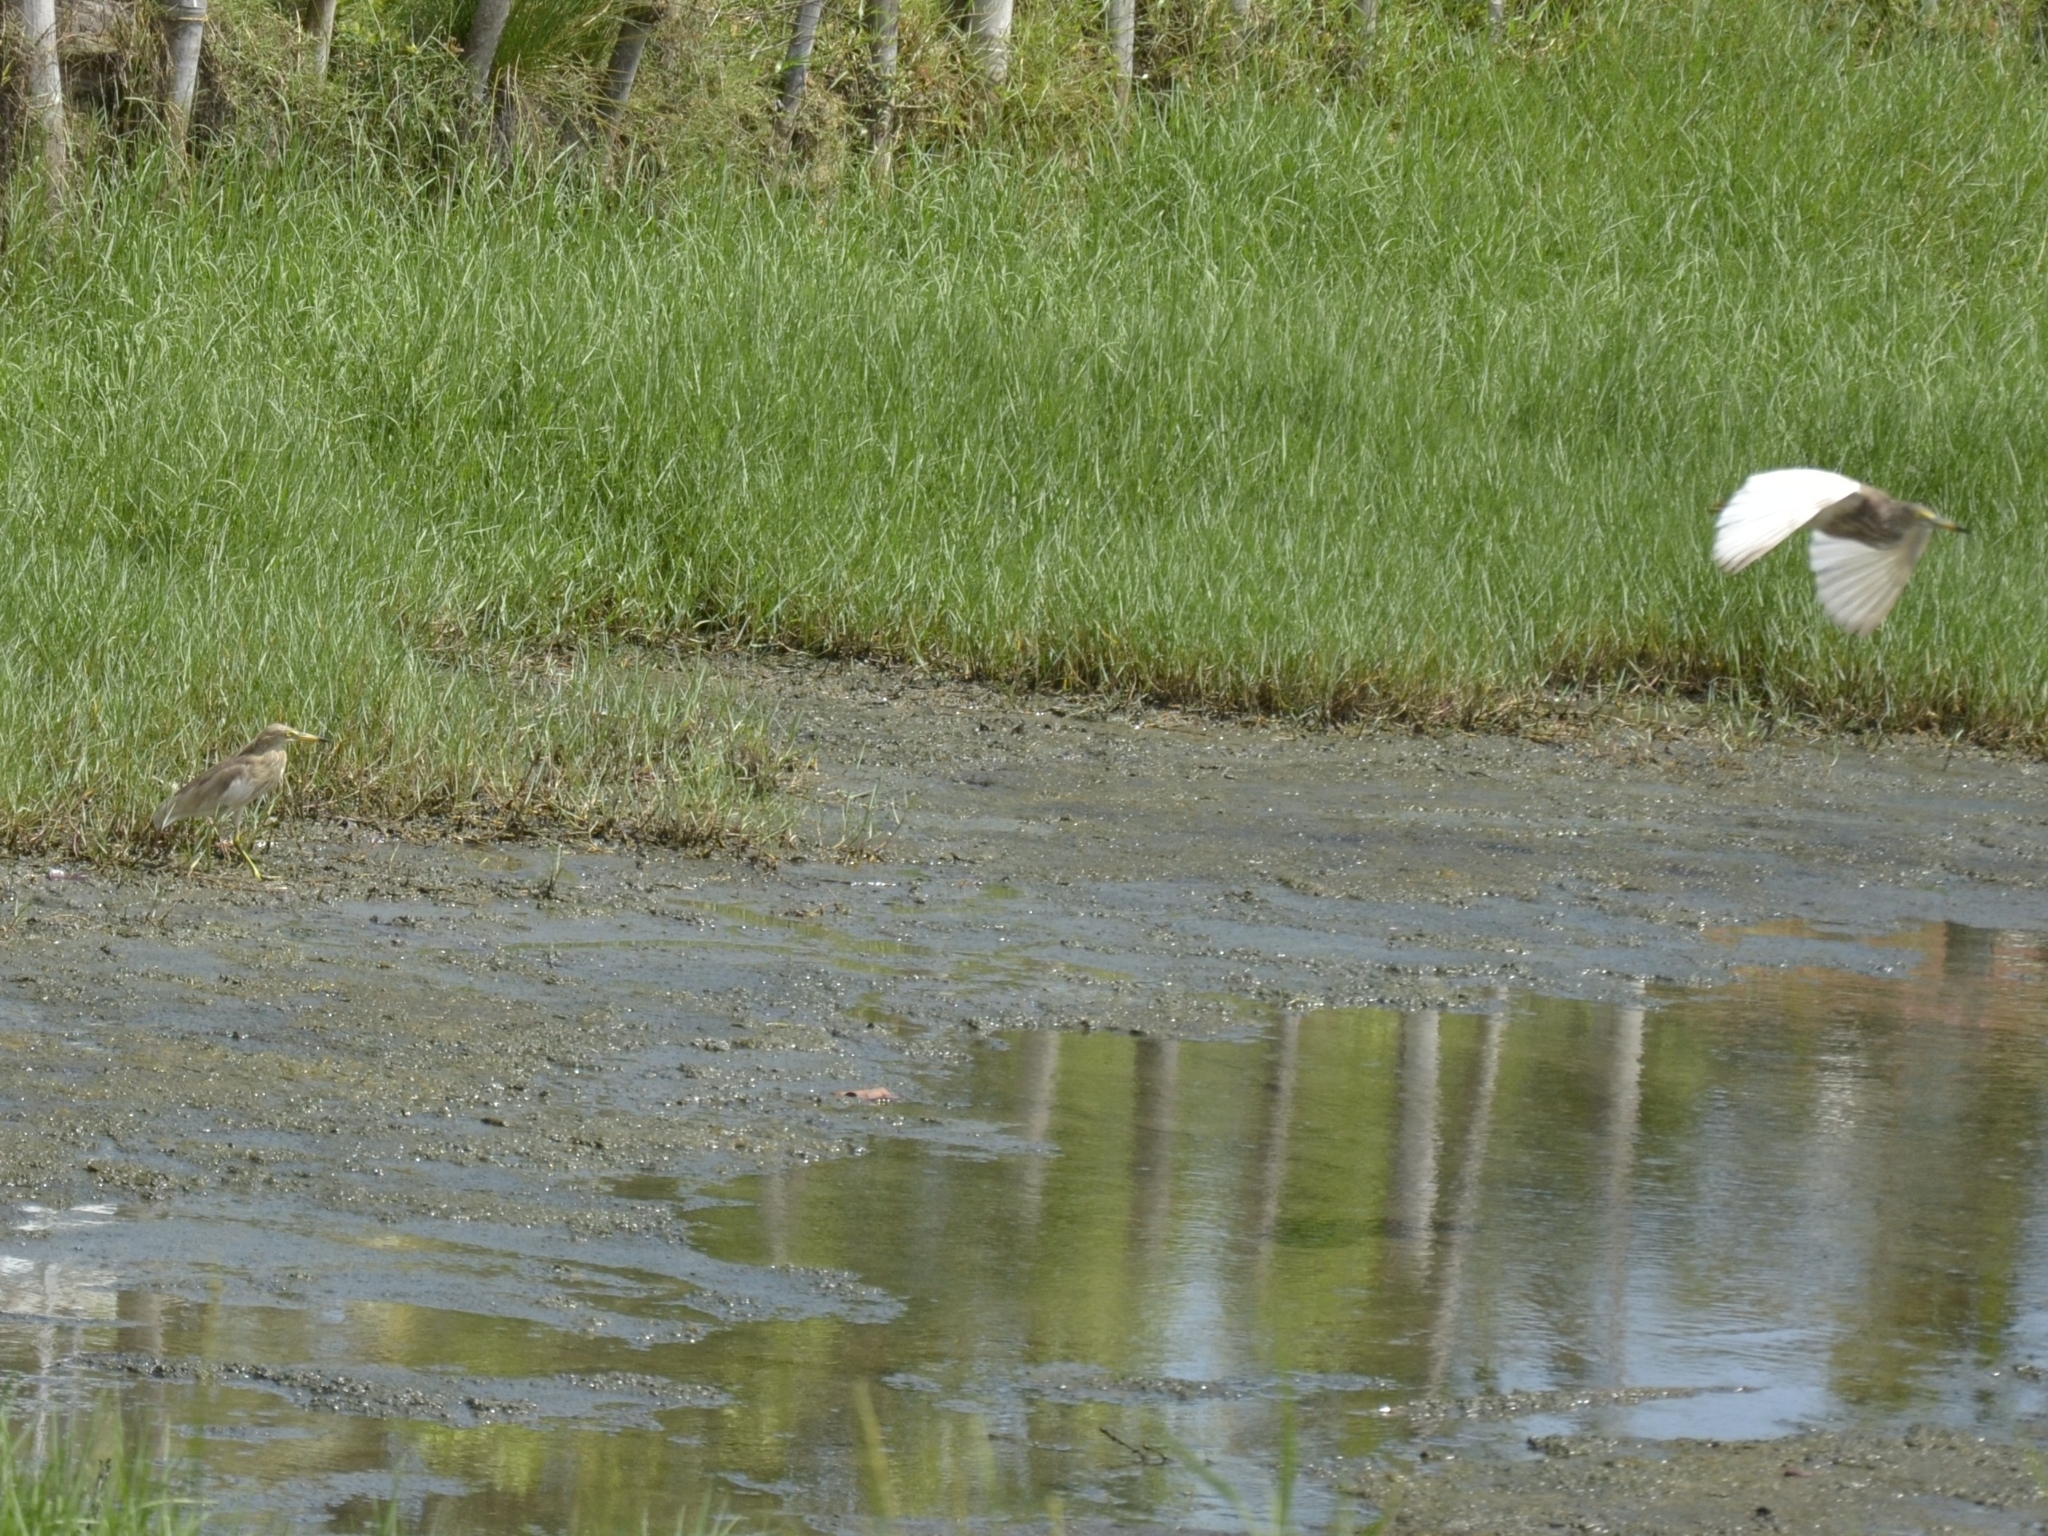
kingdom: Animalia
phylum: Chordata
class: Aves
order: Pelecaniformes
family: Ardeidae
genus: Ardeola
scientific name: Ardeola grayii
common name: Indian pond heron
